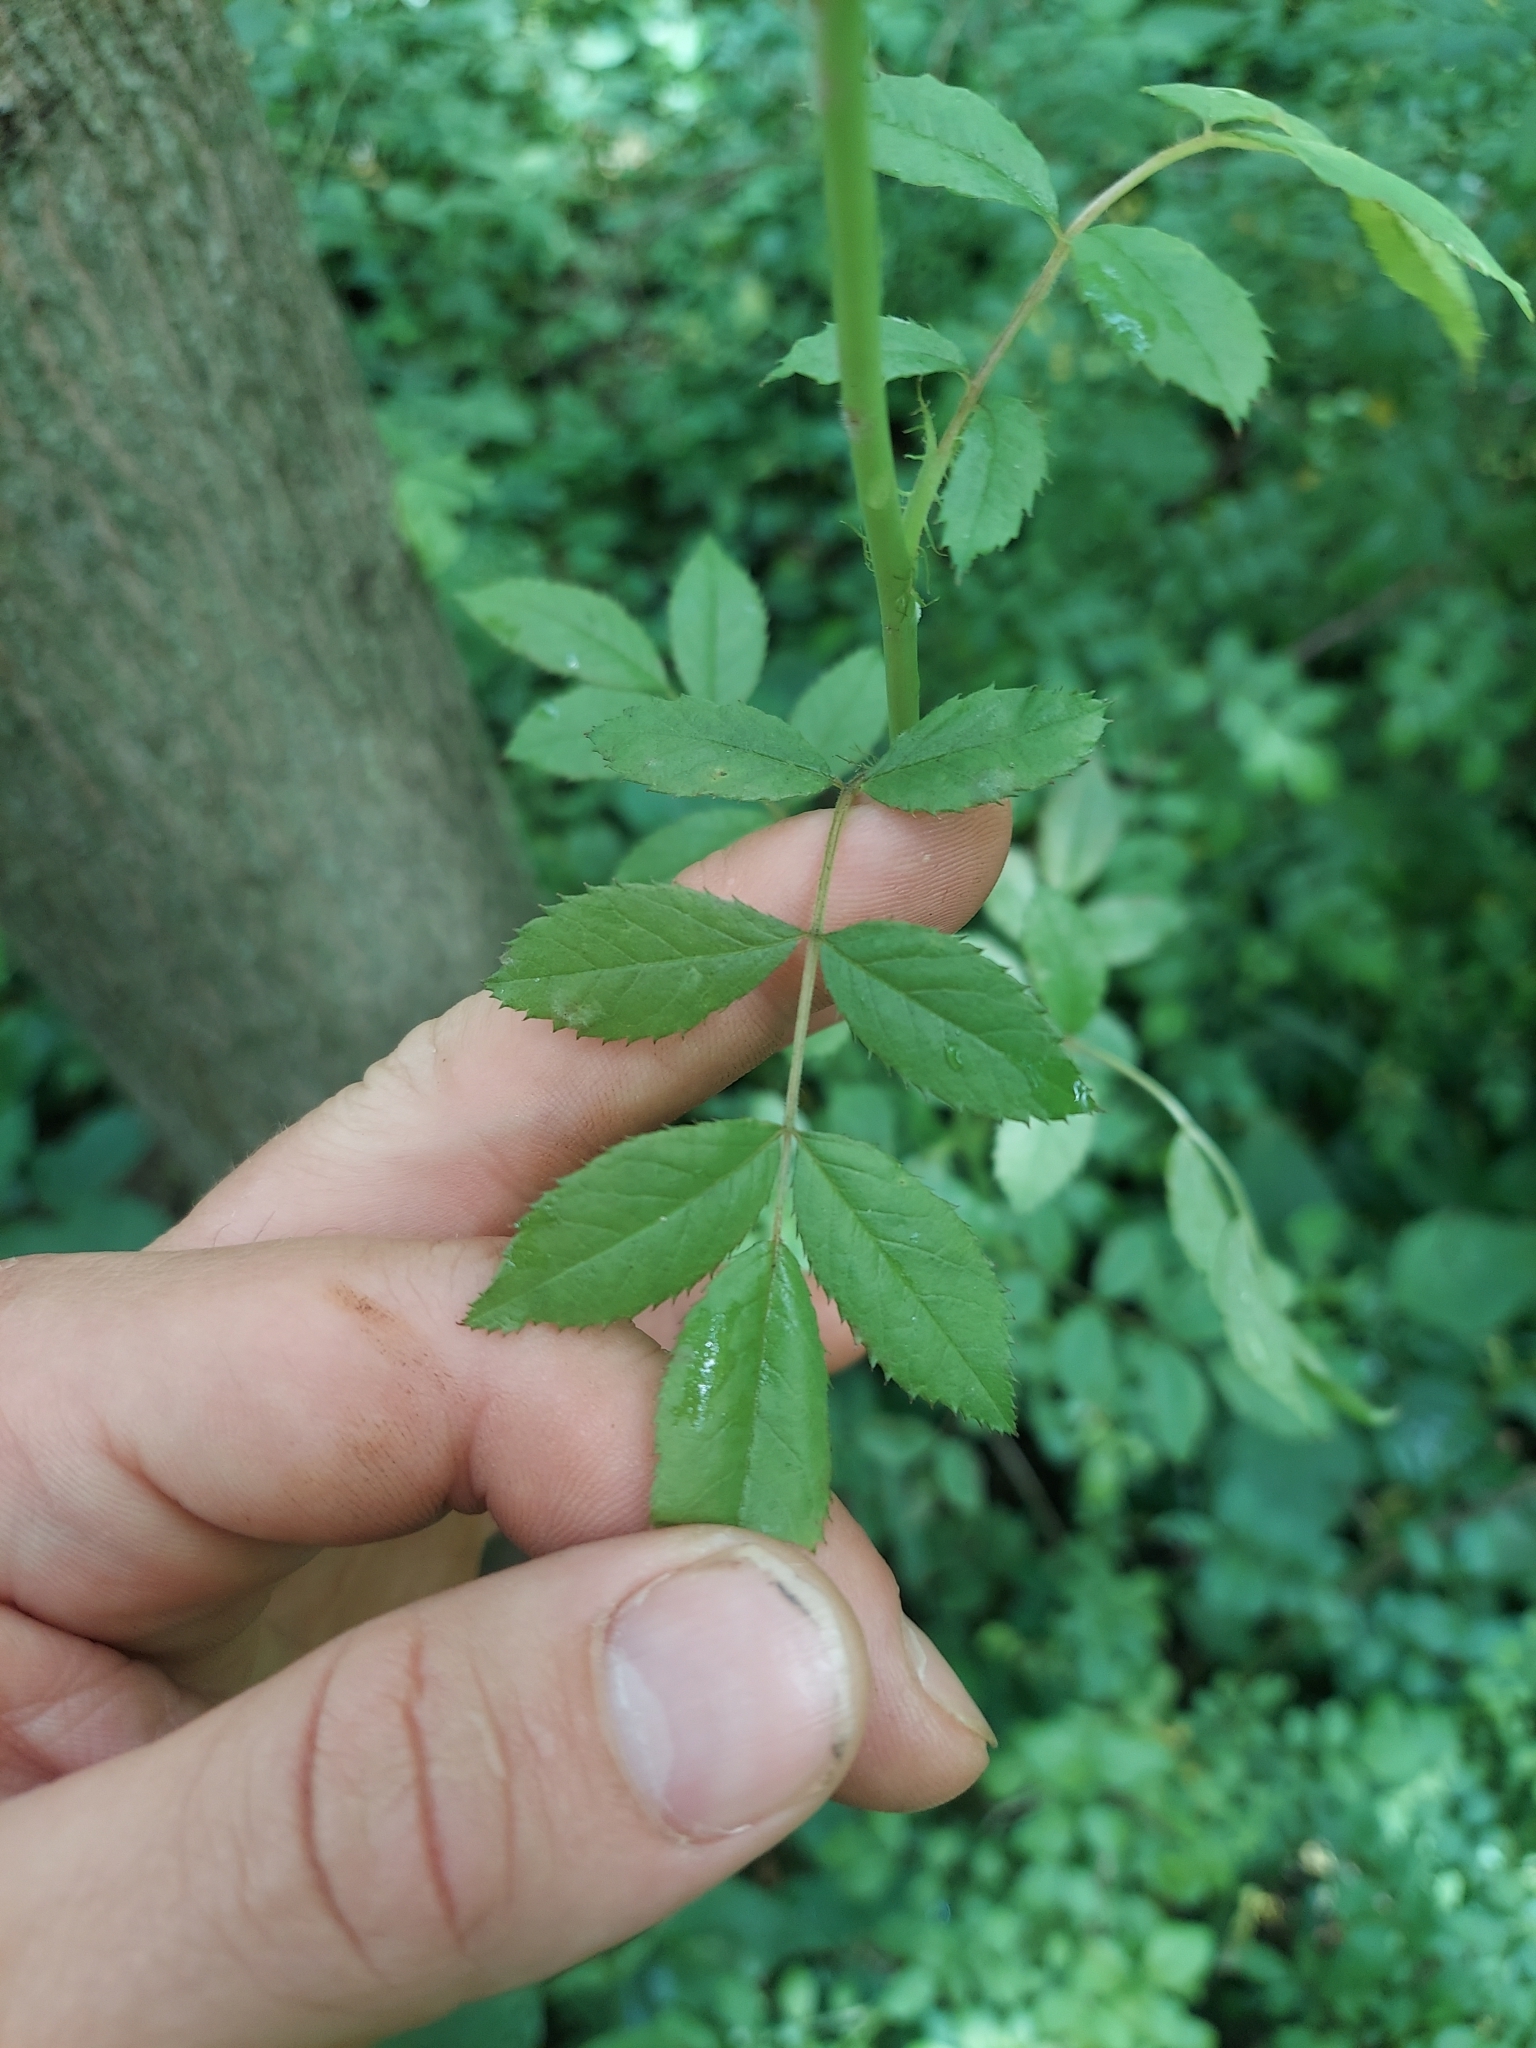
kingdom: Plantae
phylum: Tracheophyta
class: Magnoliopsida
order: Rosales
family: Rosaceae
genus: Rosa
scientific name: Rosa multiflora
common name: Multiflora rose
